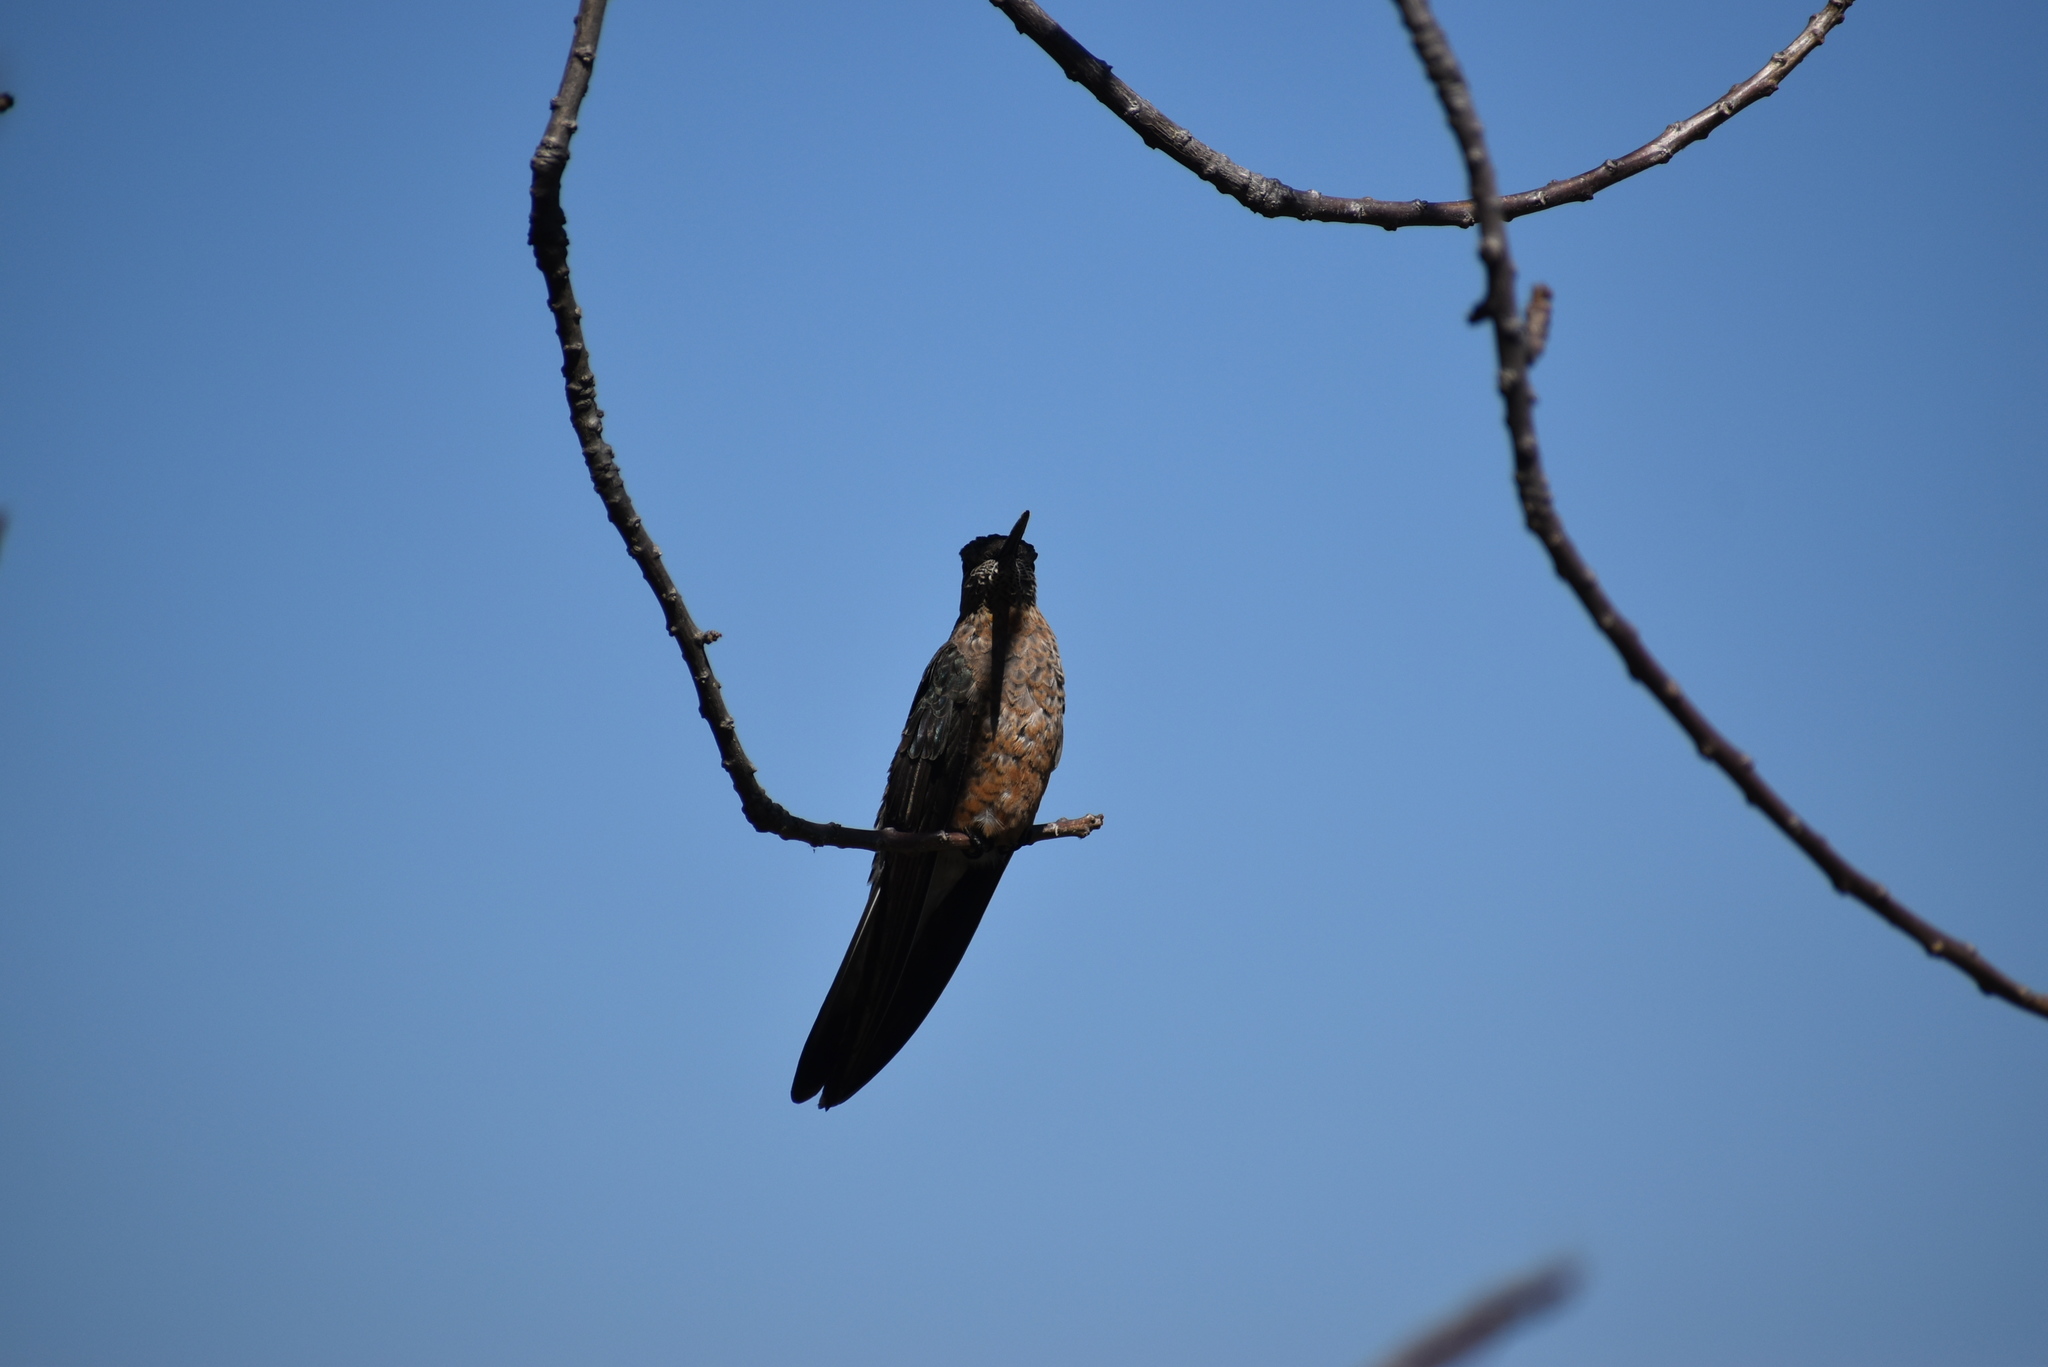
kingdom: Animalia
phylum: Chordata
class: Aves
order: Apodiformes
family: Trochilidae
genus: Patagona
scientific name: Patagona gigas
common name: Giant hummingbird
